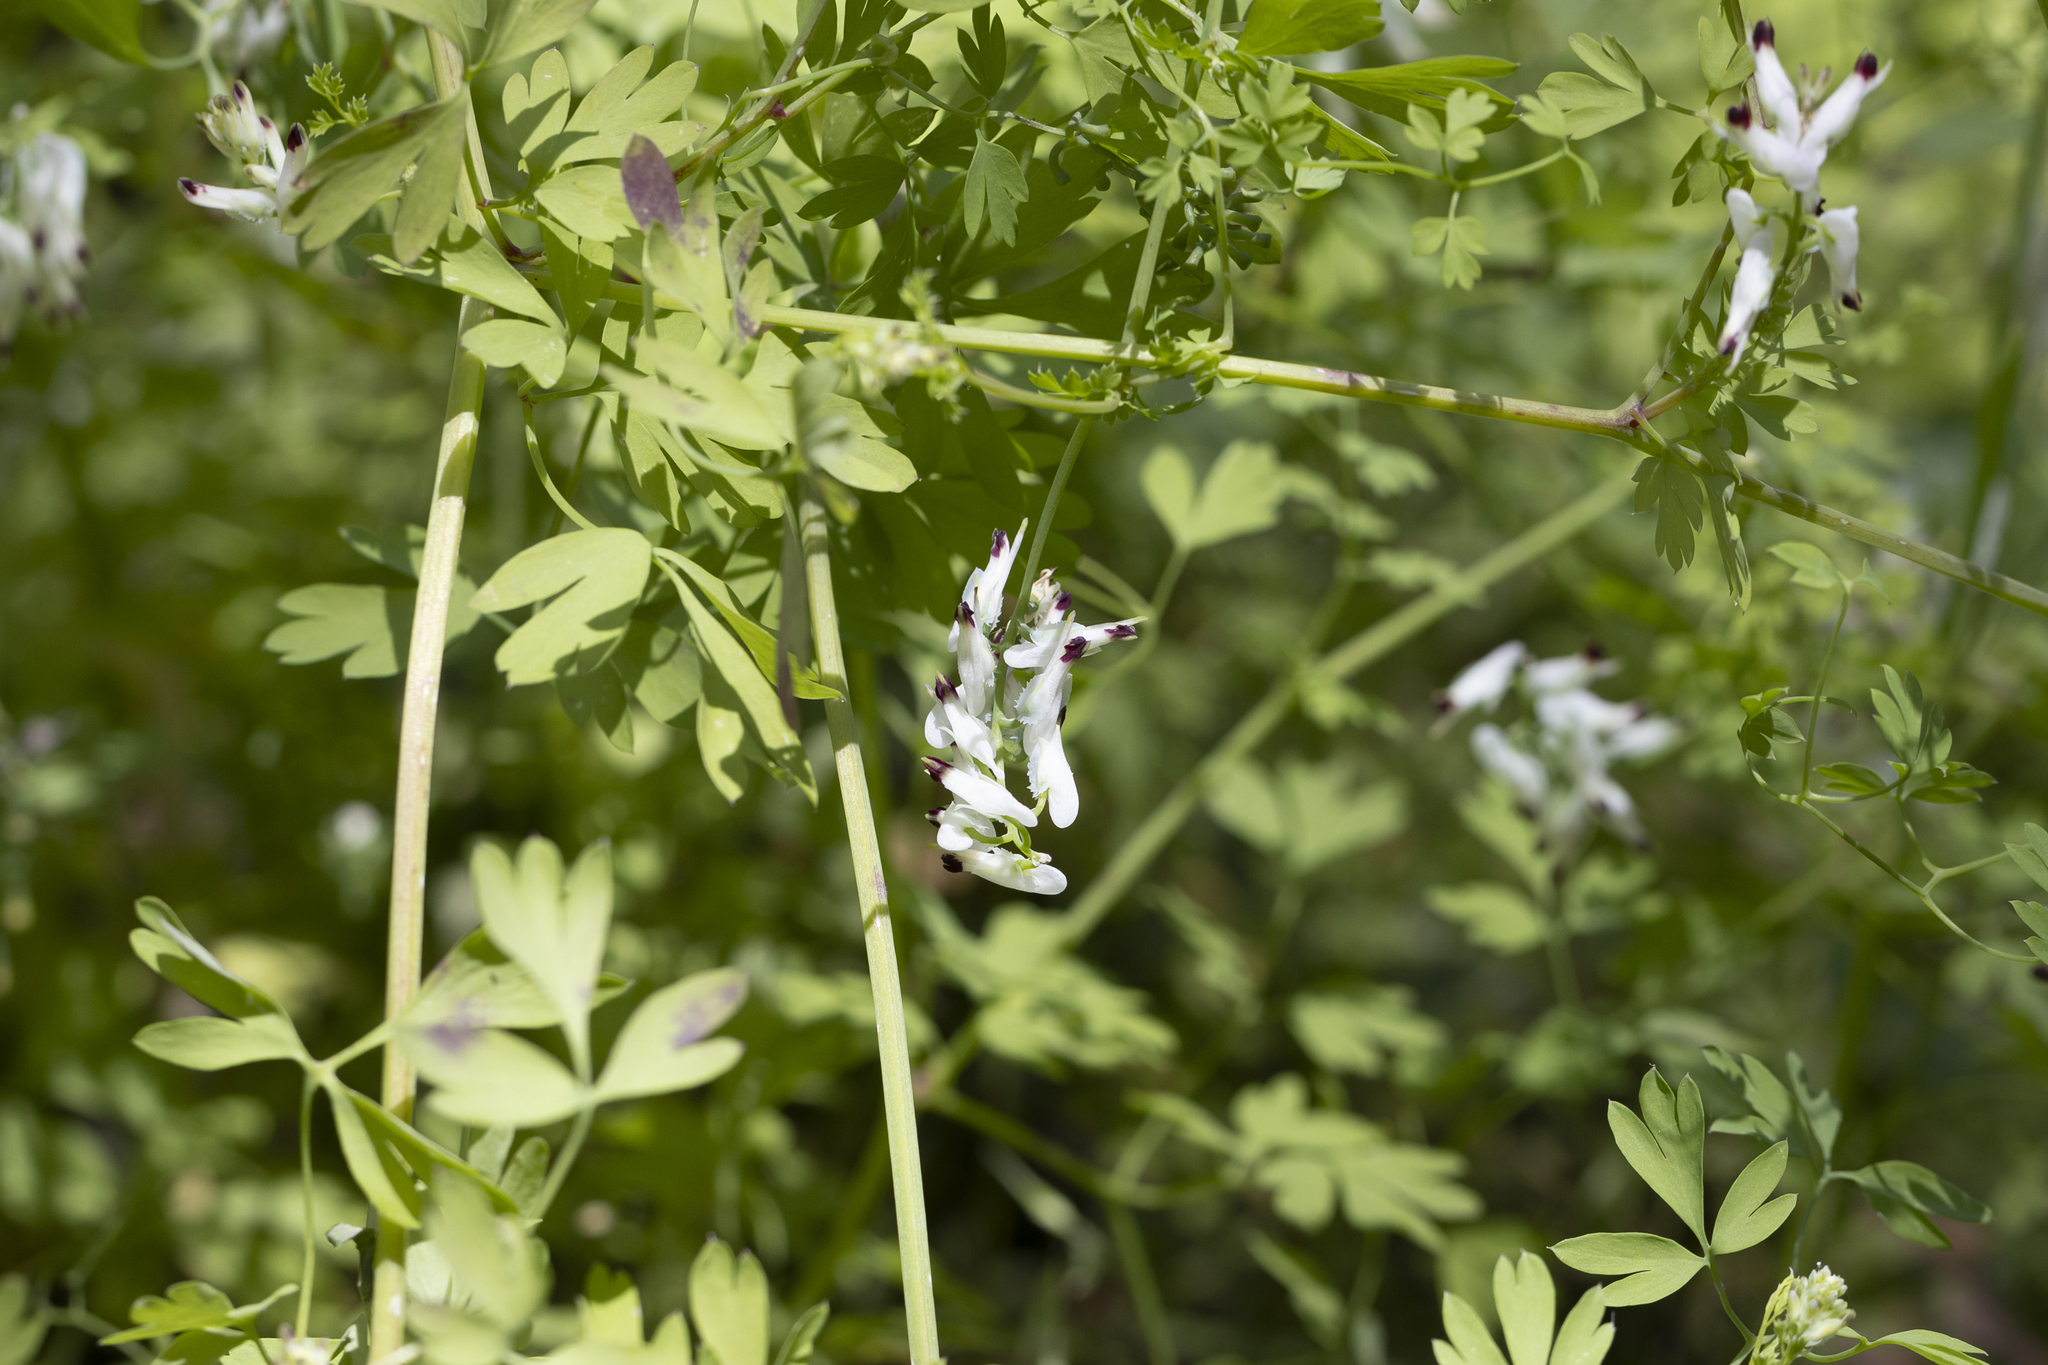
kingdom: Plantae
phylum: Tracheophyta
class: Magnoliopsida
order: Ranunculales
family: Papaveraceae
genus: Fumaria
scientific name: Fumaria capreolata
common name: White ramping-fumitory
